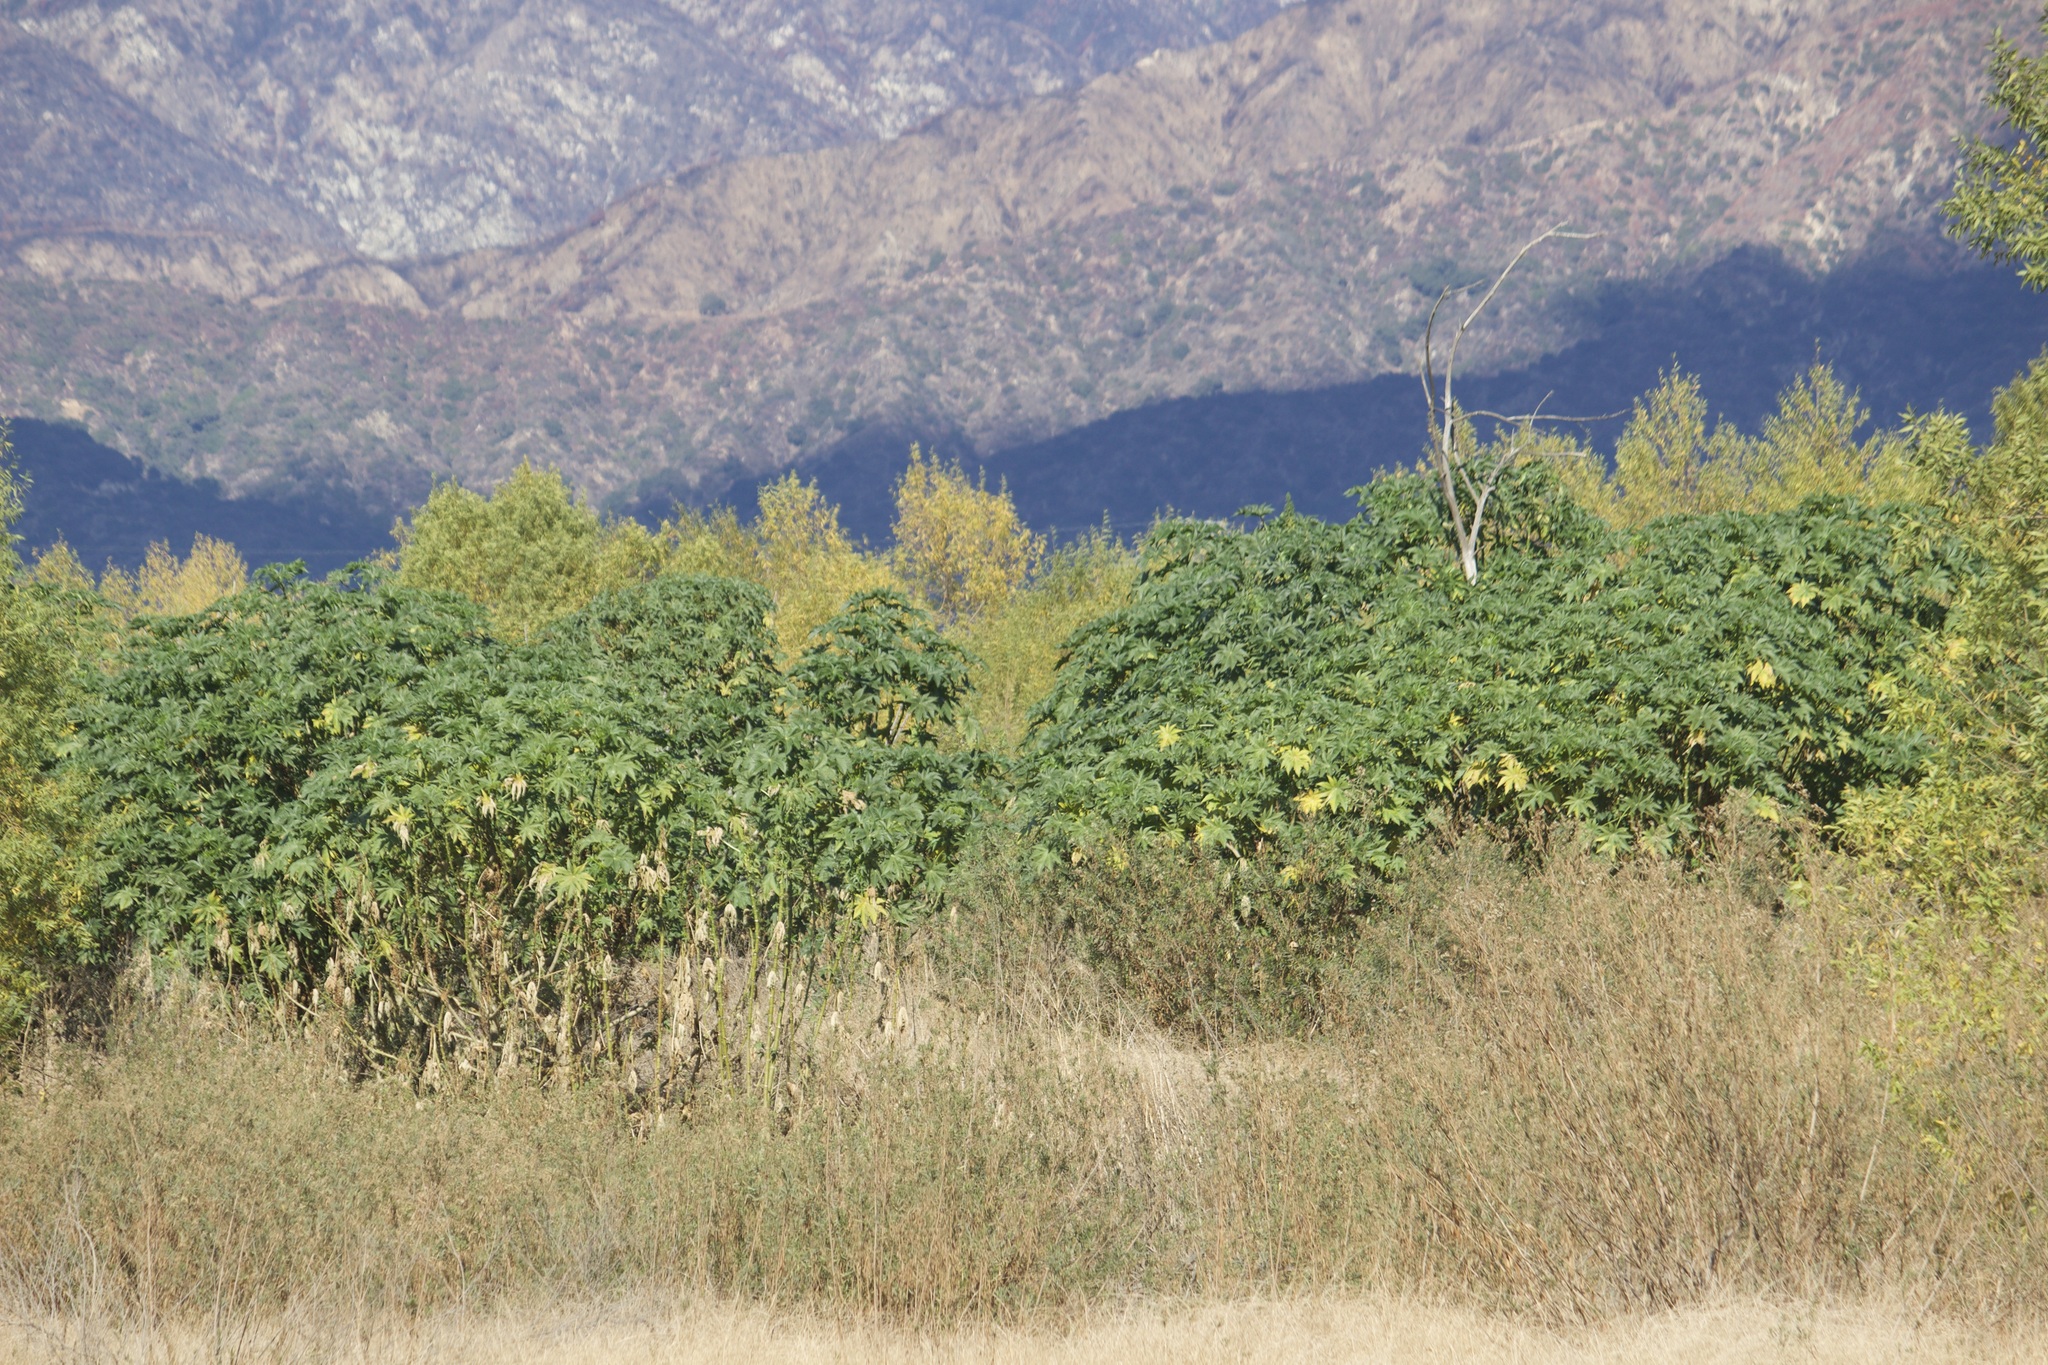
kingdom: Plantae
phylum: Tracheophyta
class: Magnoliopsida
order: Malpighiales
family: Euphorbiaceae
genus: Ricinus
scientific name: Ricinus communis
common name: Castor-oil-plant
